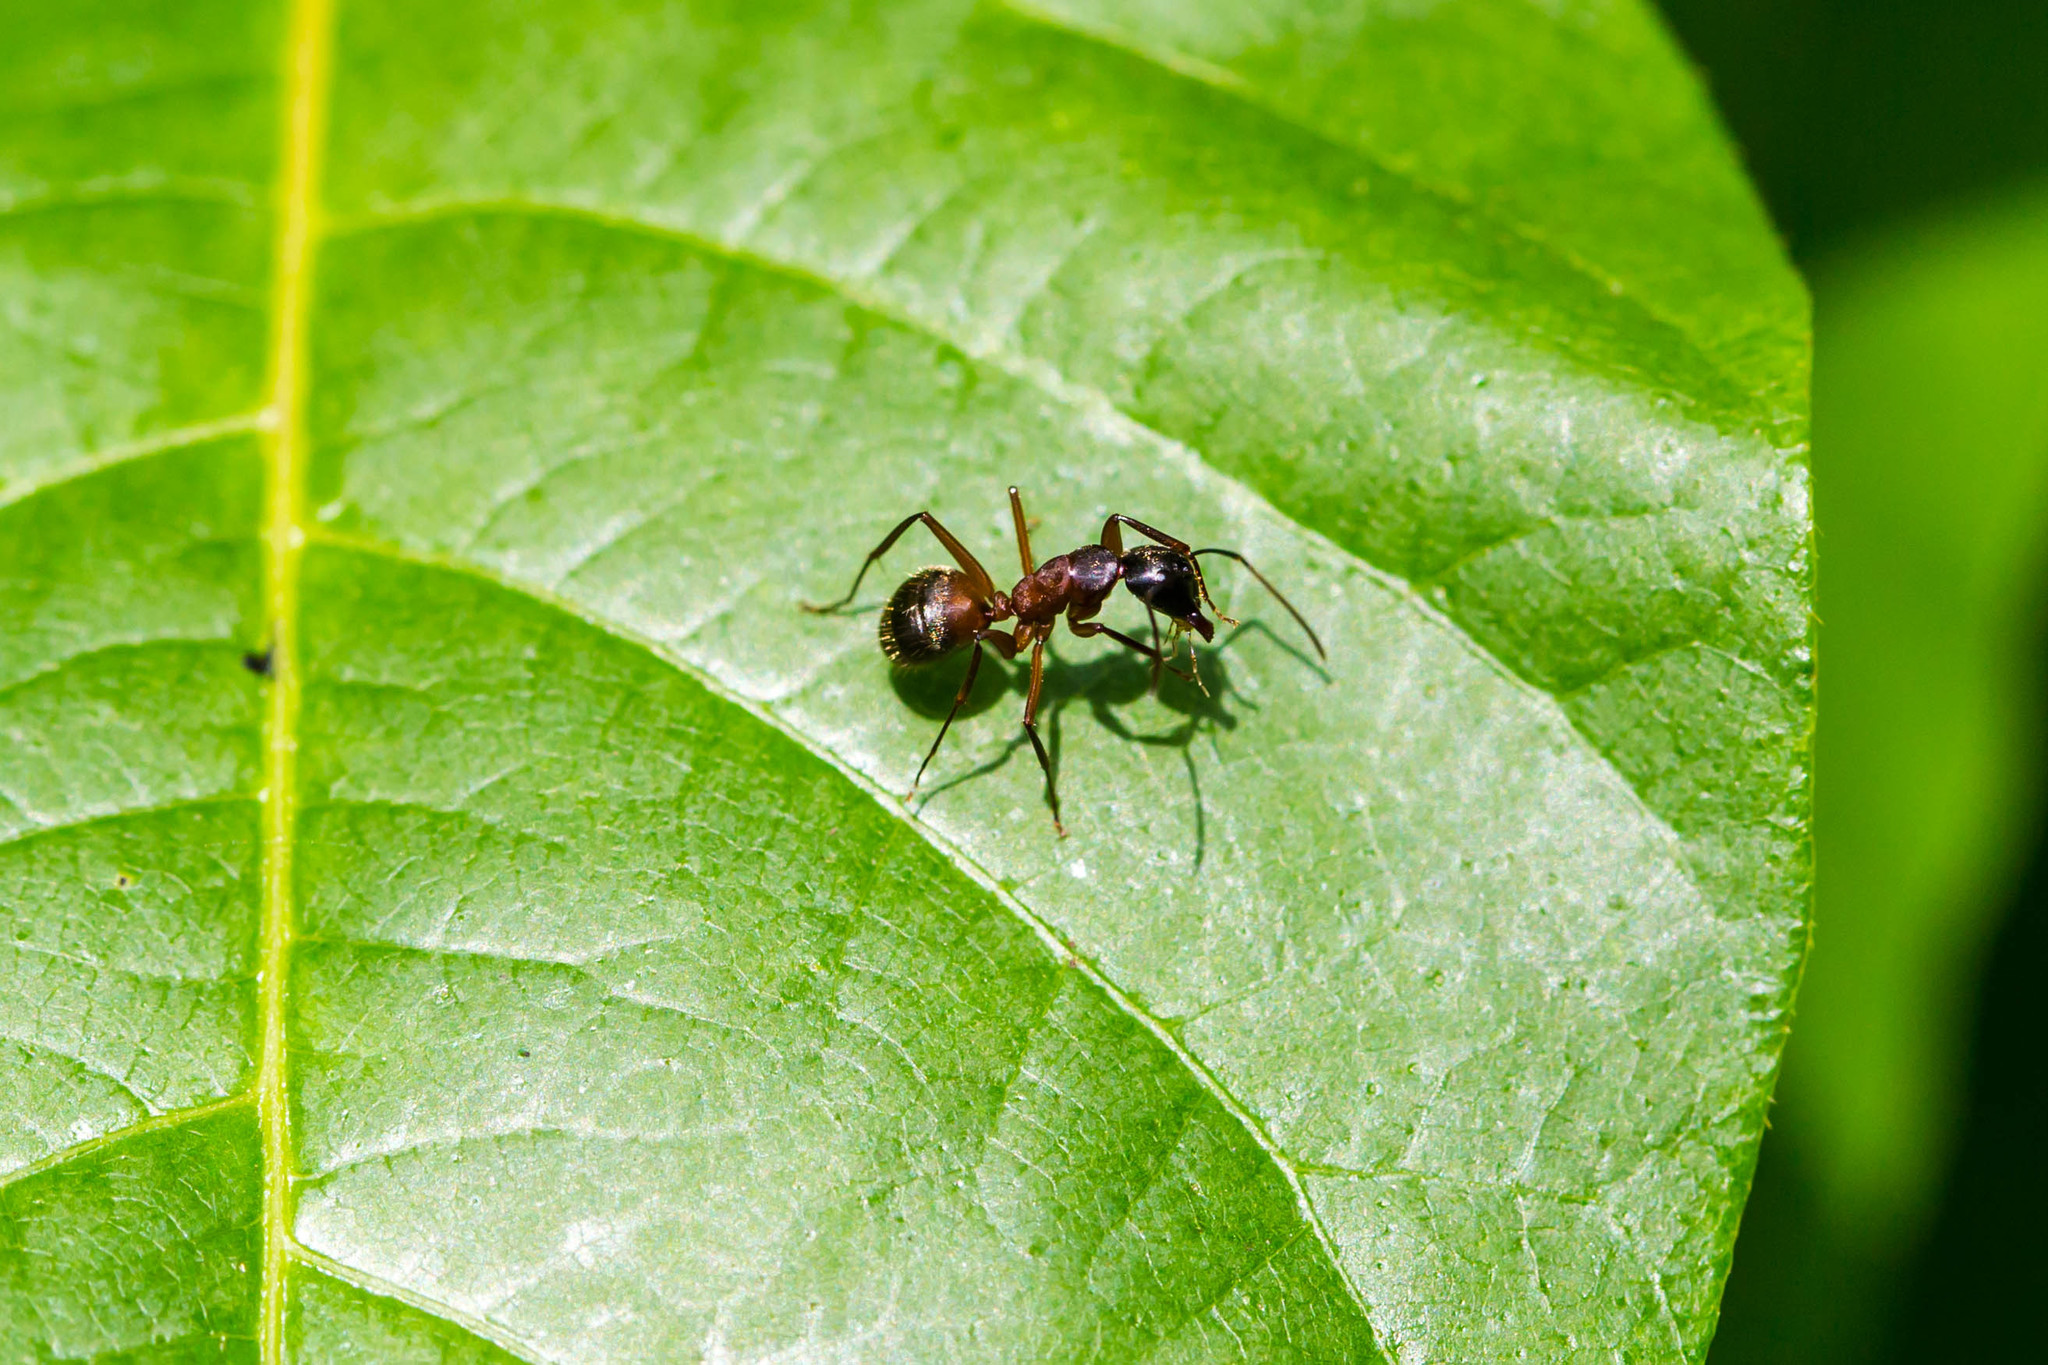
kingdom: Animalia
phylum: Arthropoda
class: Insecta
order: Hymenoptera
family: Formicidae
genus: Camponotus
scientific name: Camponotus chromaiodes
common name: Red carpenter ant
